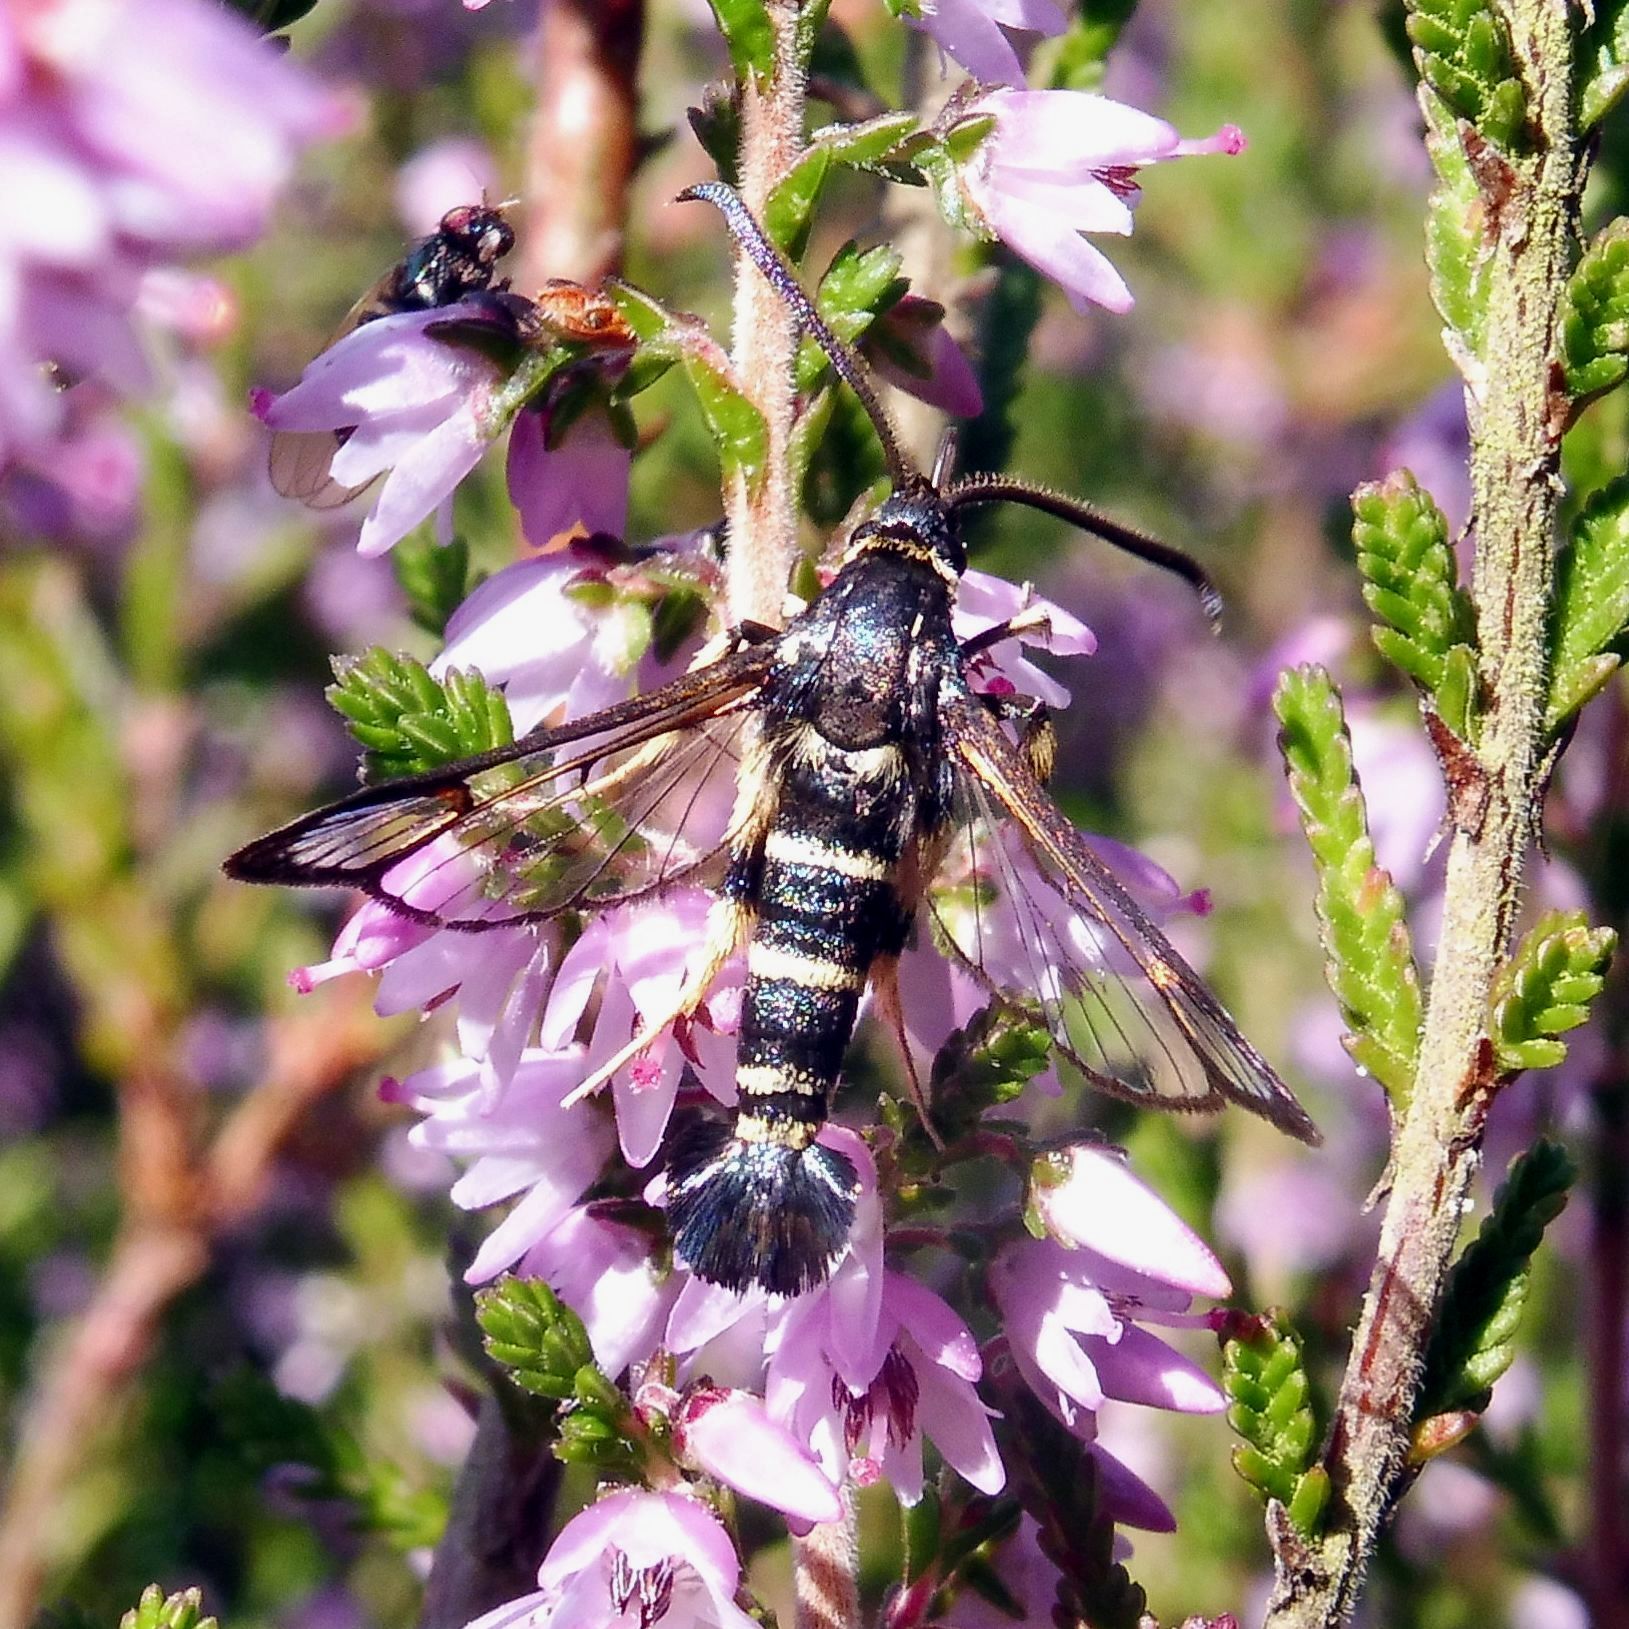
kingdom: Animalia
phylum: Arthropoda
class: Insecta
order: Lepidoptera
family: Sesiidae
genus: Synanthedon
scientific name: Synanthedon vespiformis
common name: Yellow-legged clearwing
